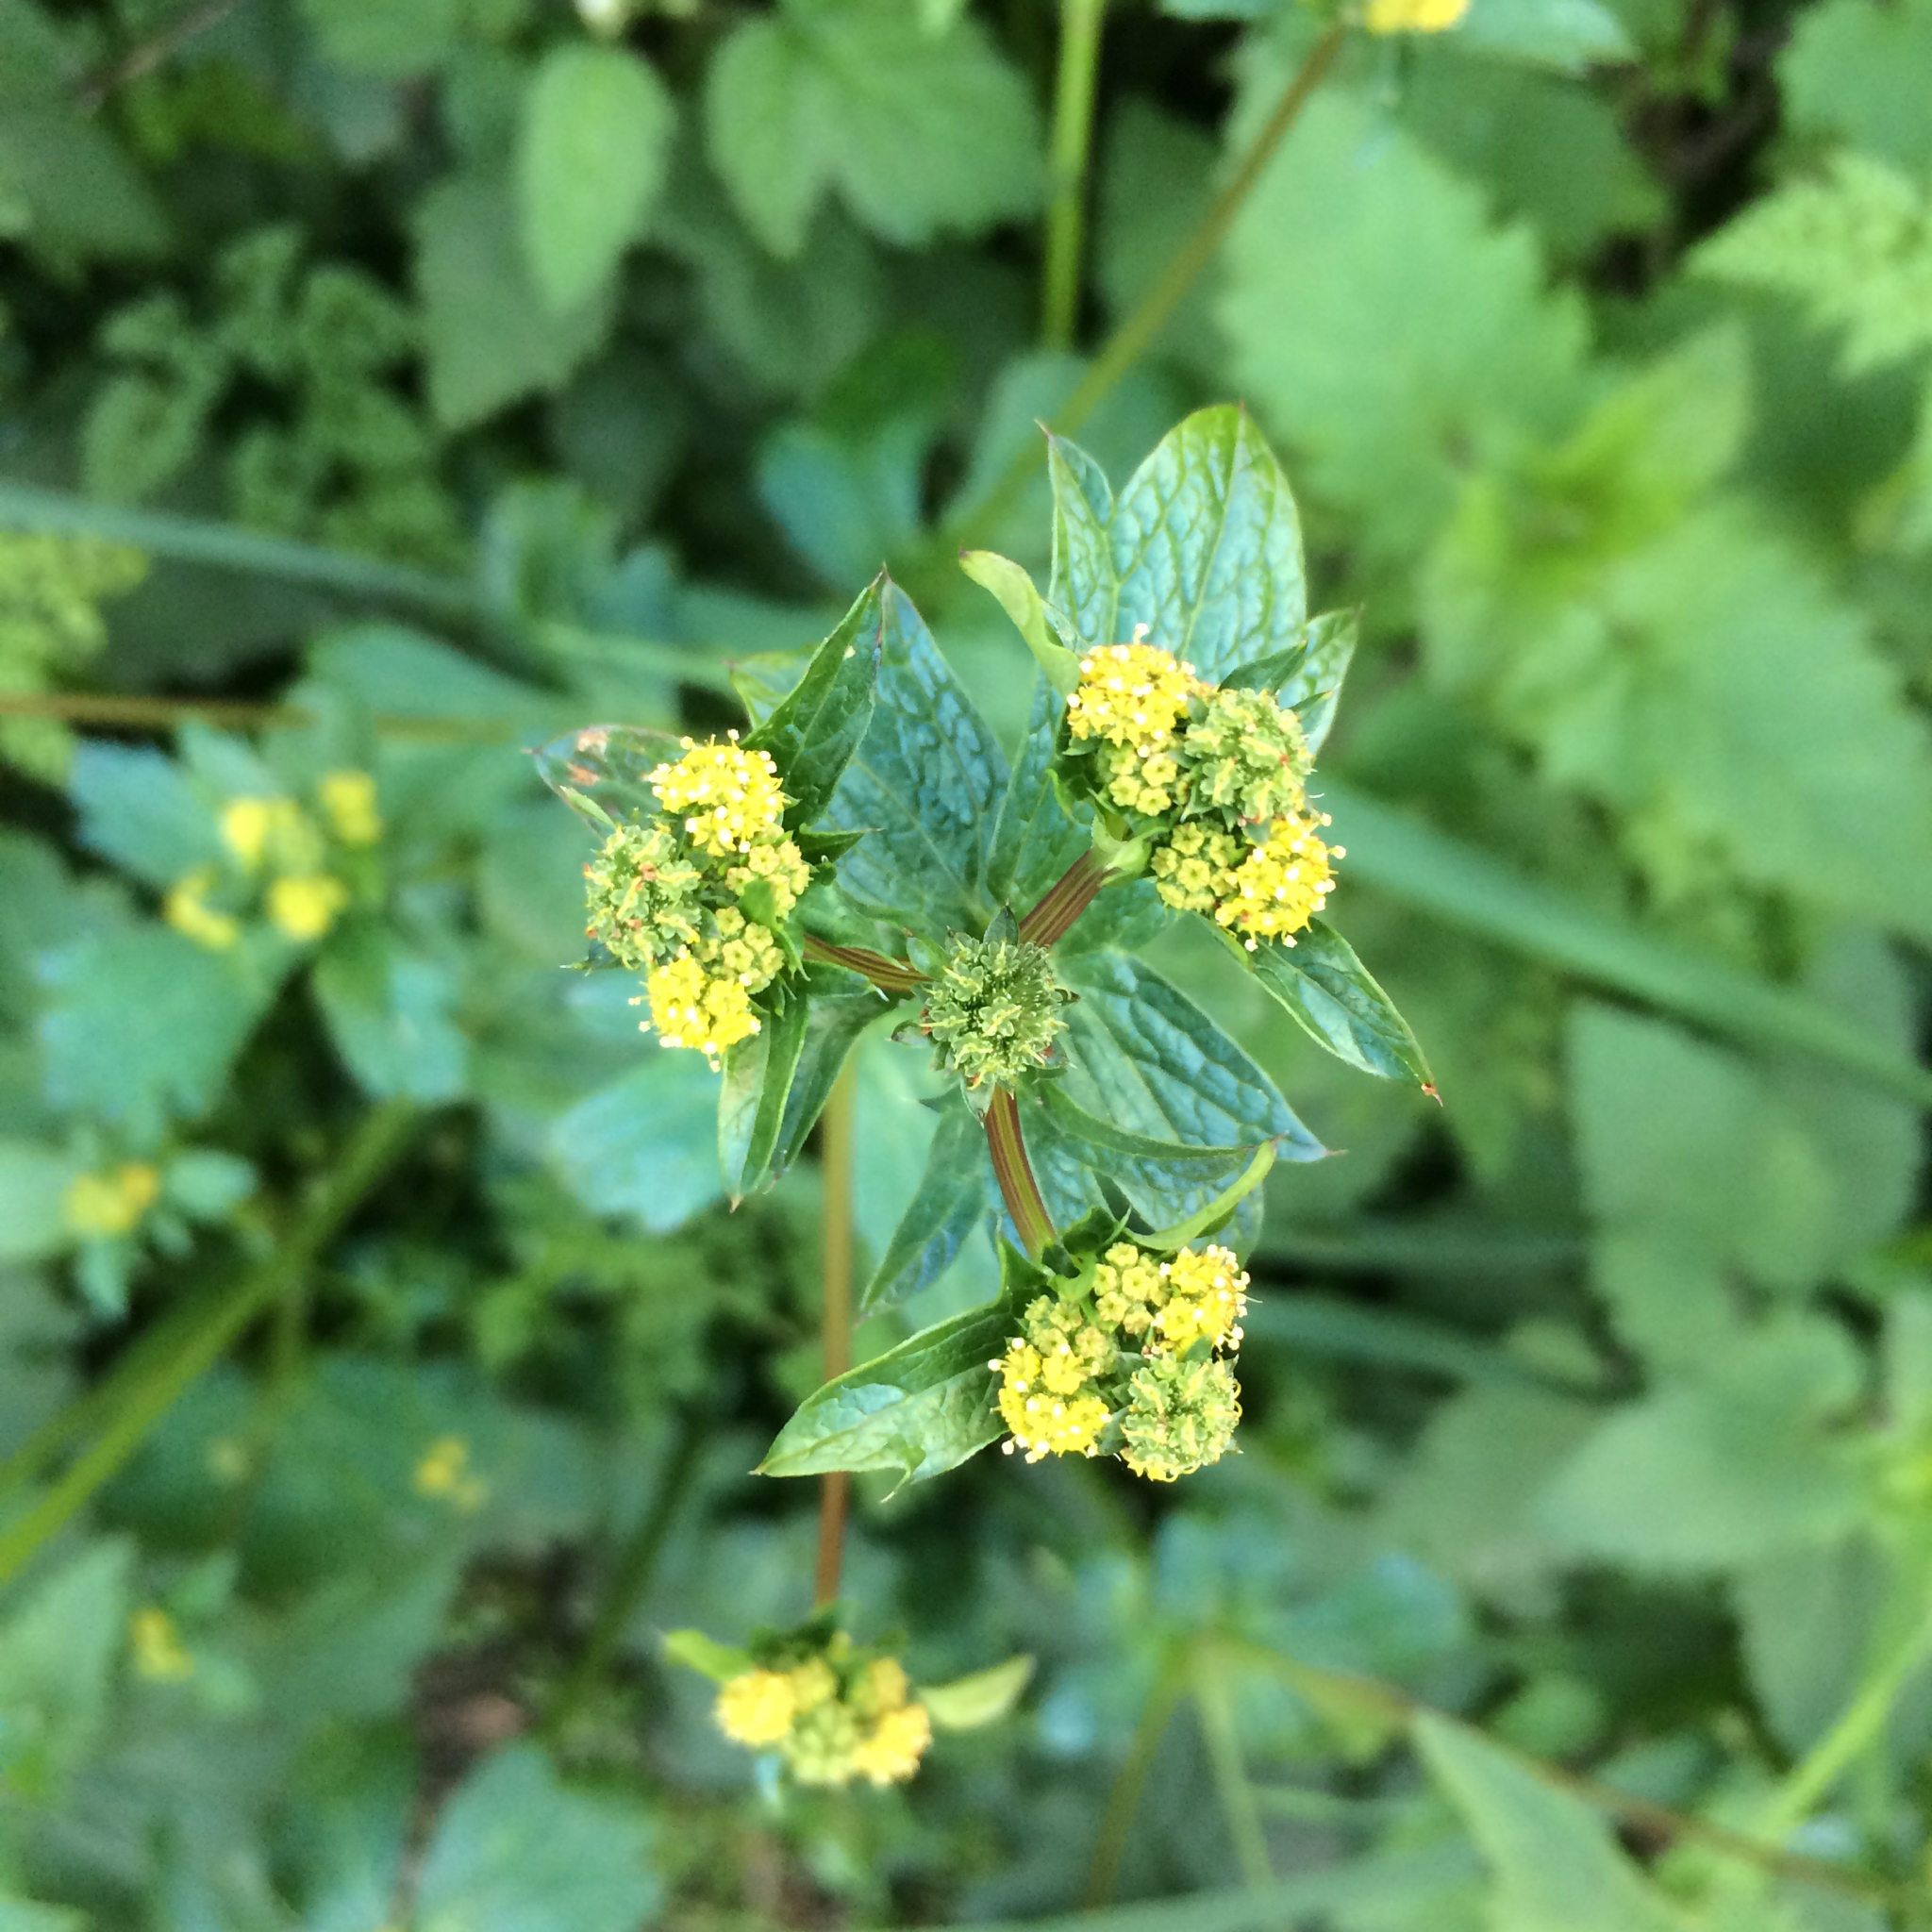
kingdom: Plantae
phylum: Tracheophyta
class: Magnoliopsida
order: Apiales
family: Apiaceae
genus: Sanicula
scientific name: Sanicula crassicaulis
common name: Western snakeroot
